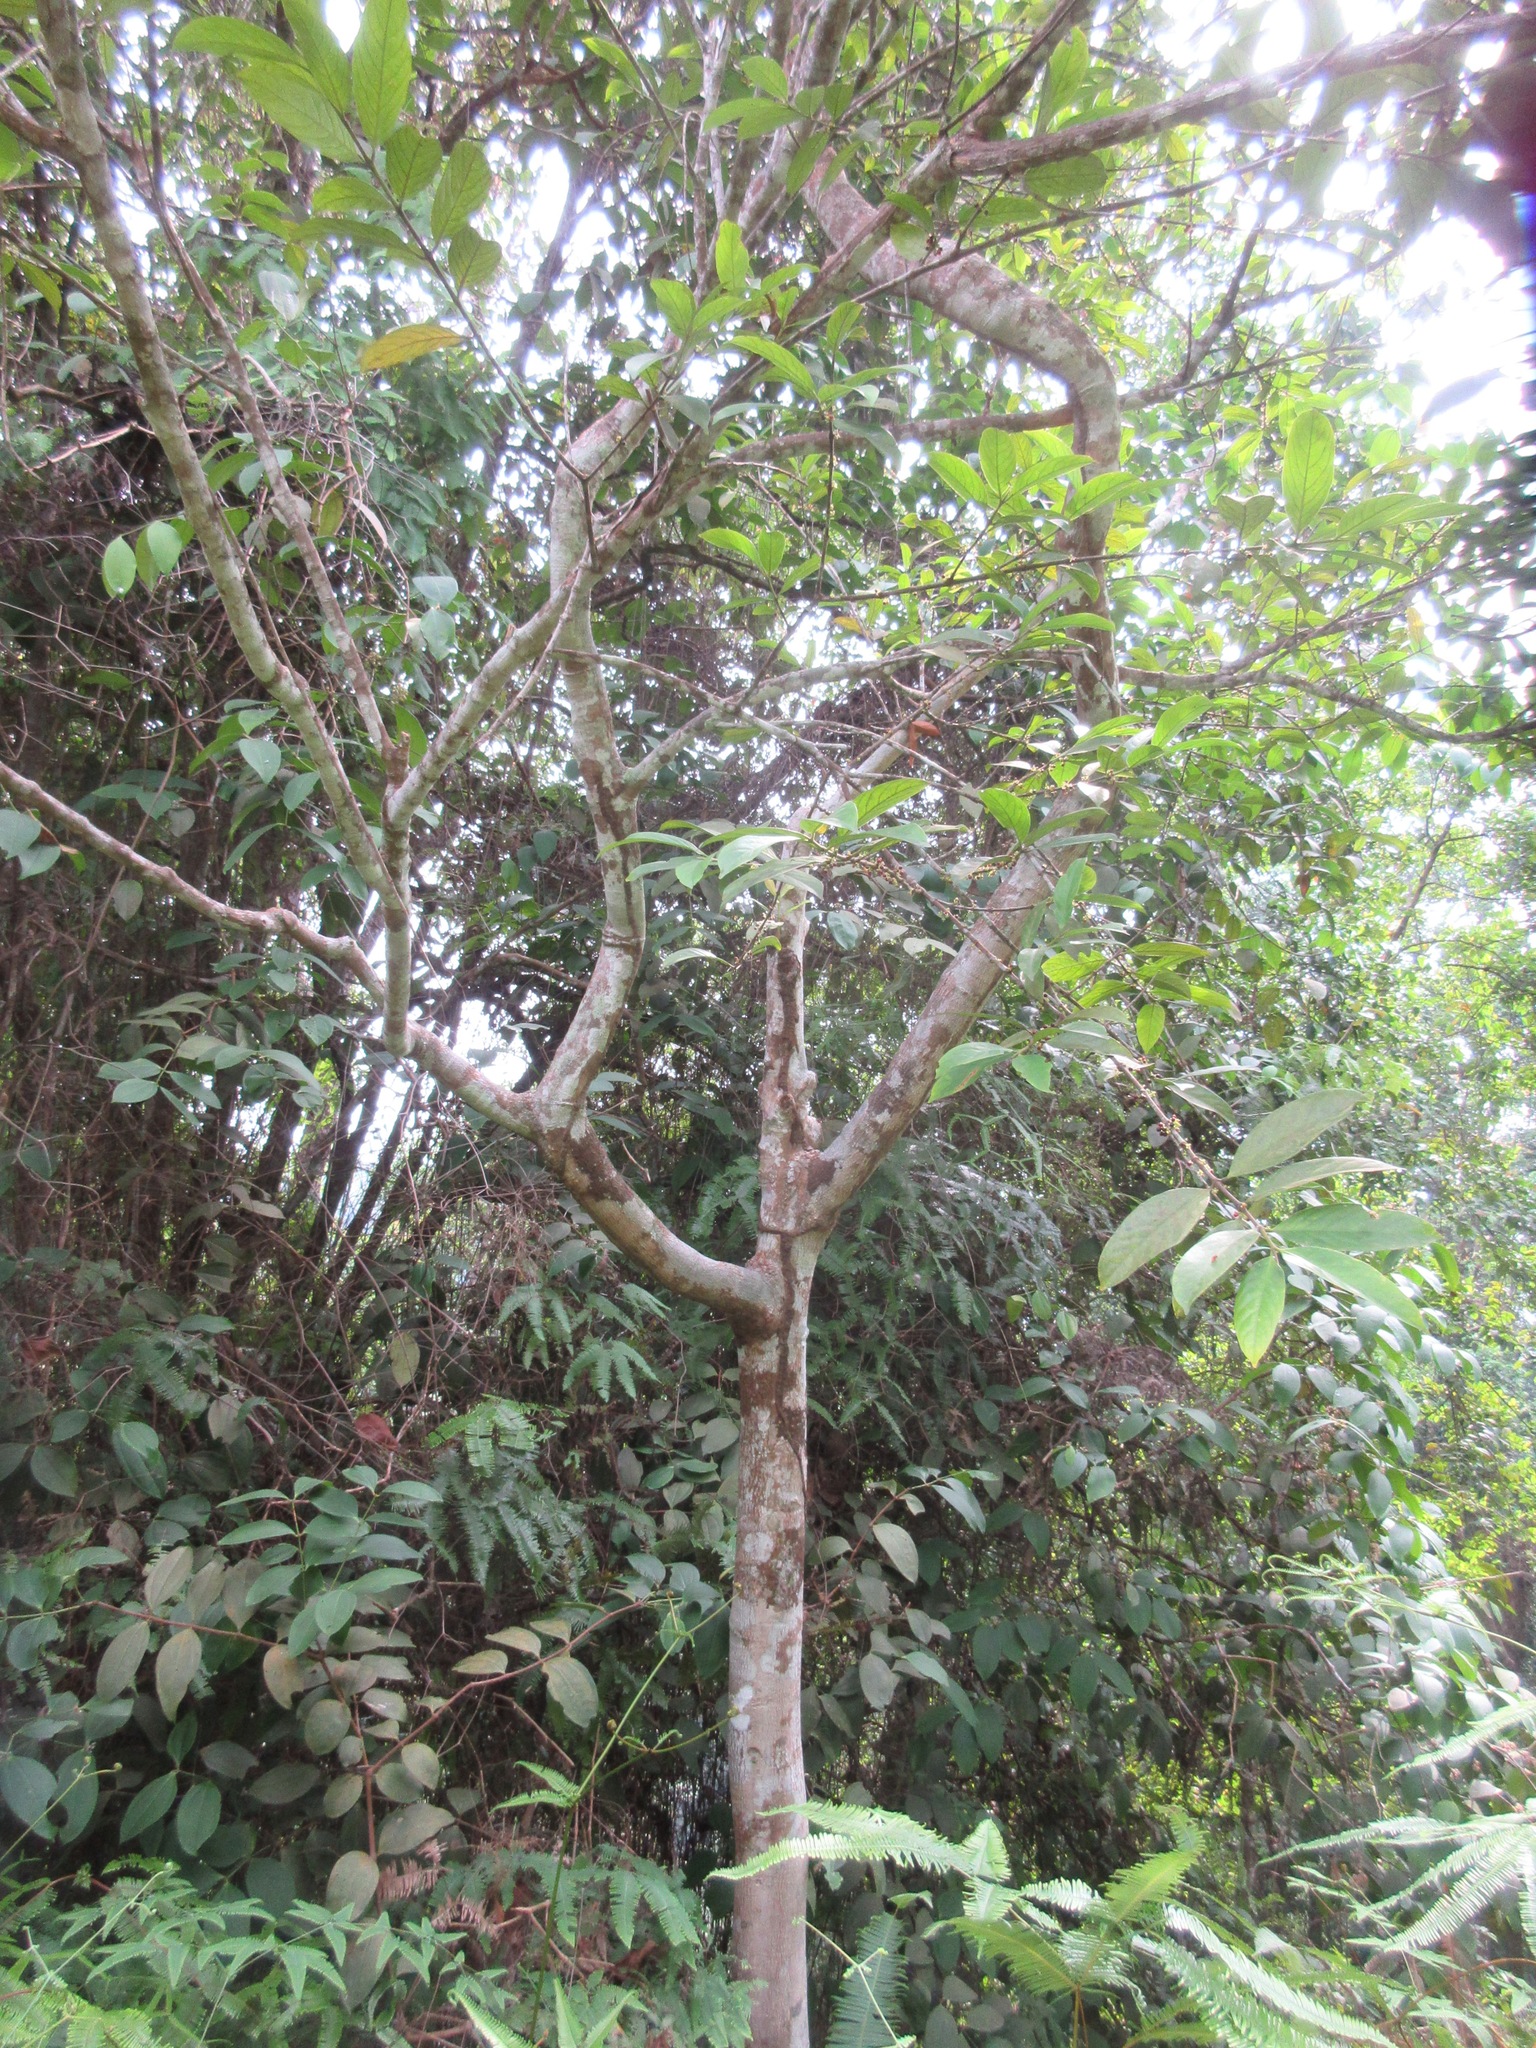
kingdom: Plantae
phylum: Tracheophyta
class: Magnoliopsida
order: Malpighiales
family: Salicaceae
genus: Flacourtia
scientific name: Flacourtia inermis
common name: Plum-of-martinique
